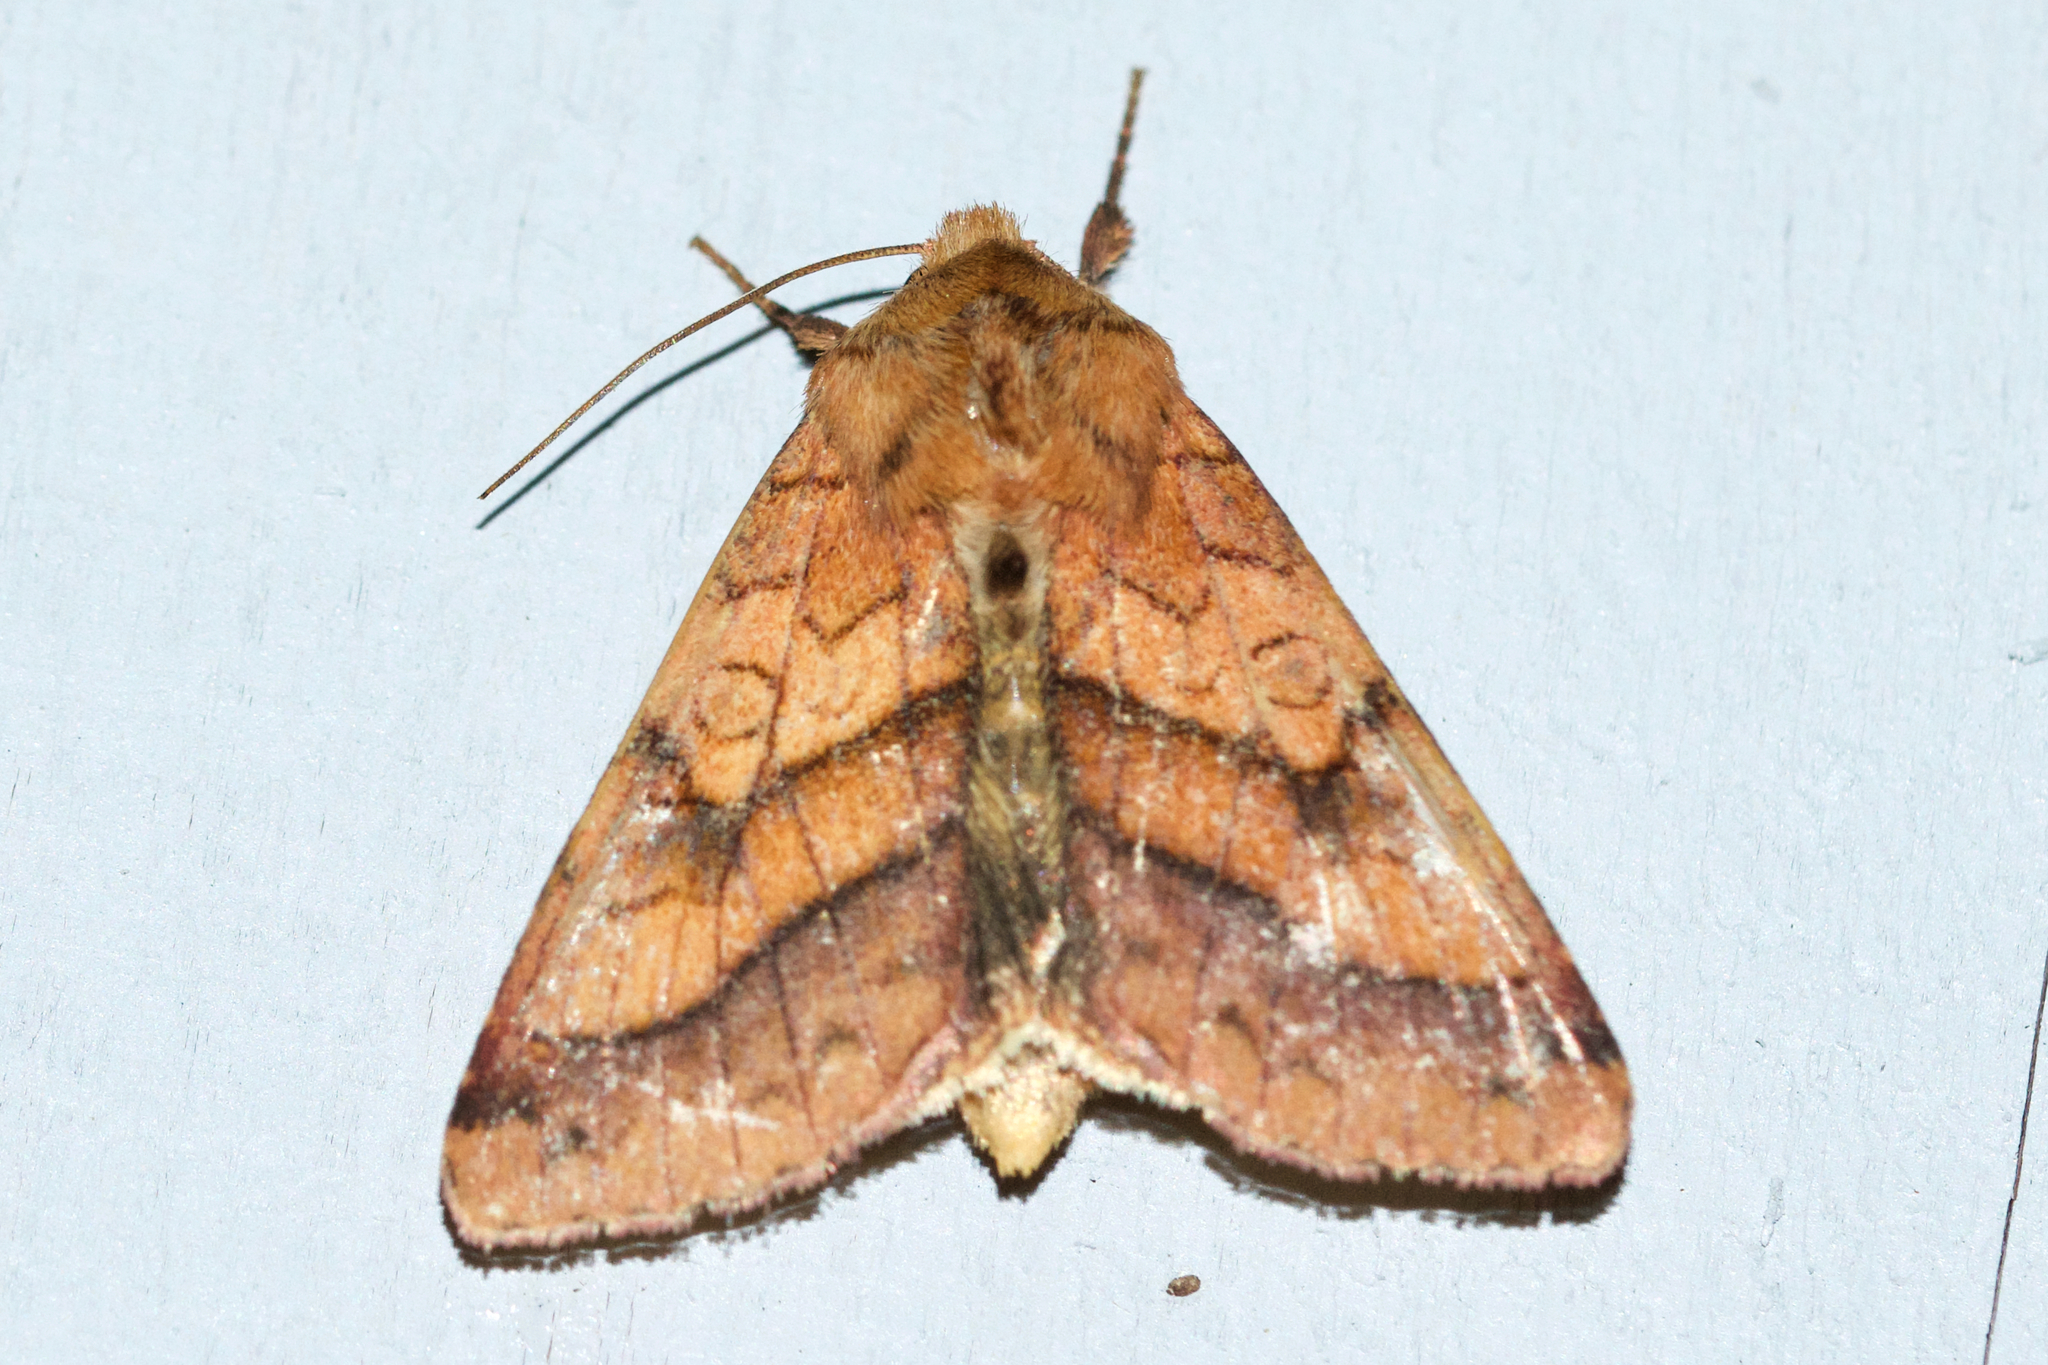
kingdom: Animalia
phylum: Arthropoda
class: Insecta
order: Lepidoptera
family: Noctuidae
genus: Pyrrhia
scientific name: Pyrrhia exprimens
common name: Purple-lined sallow
